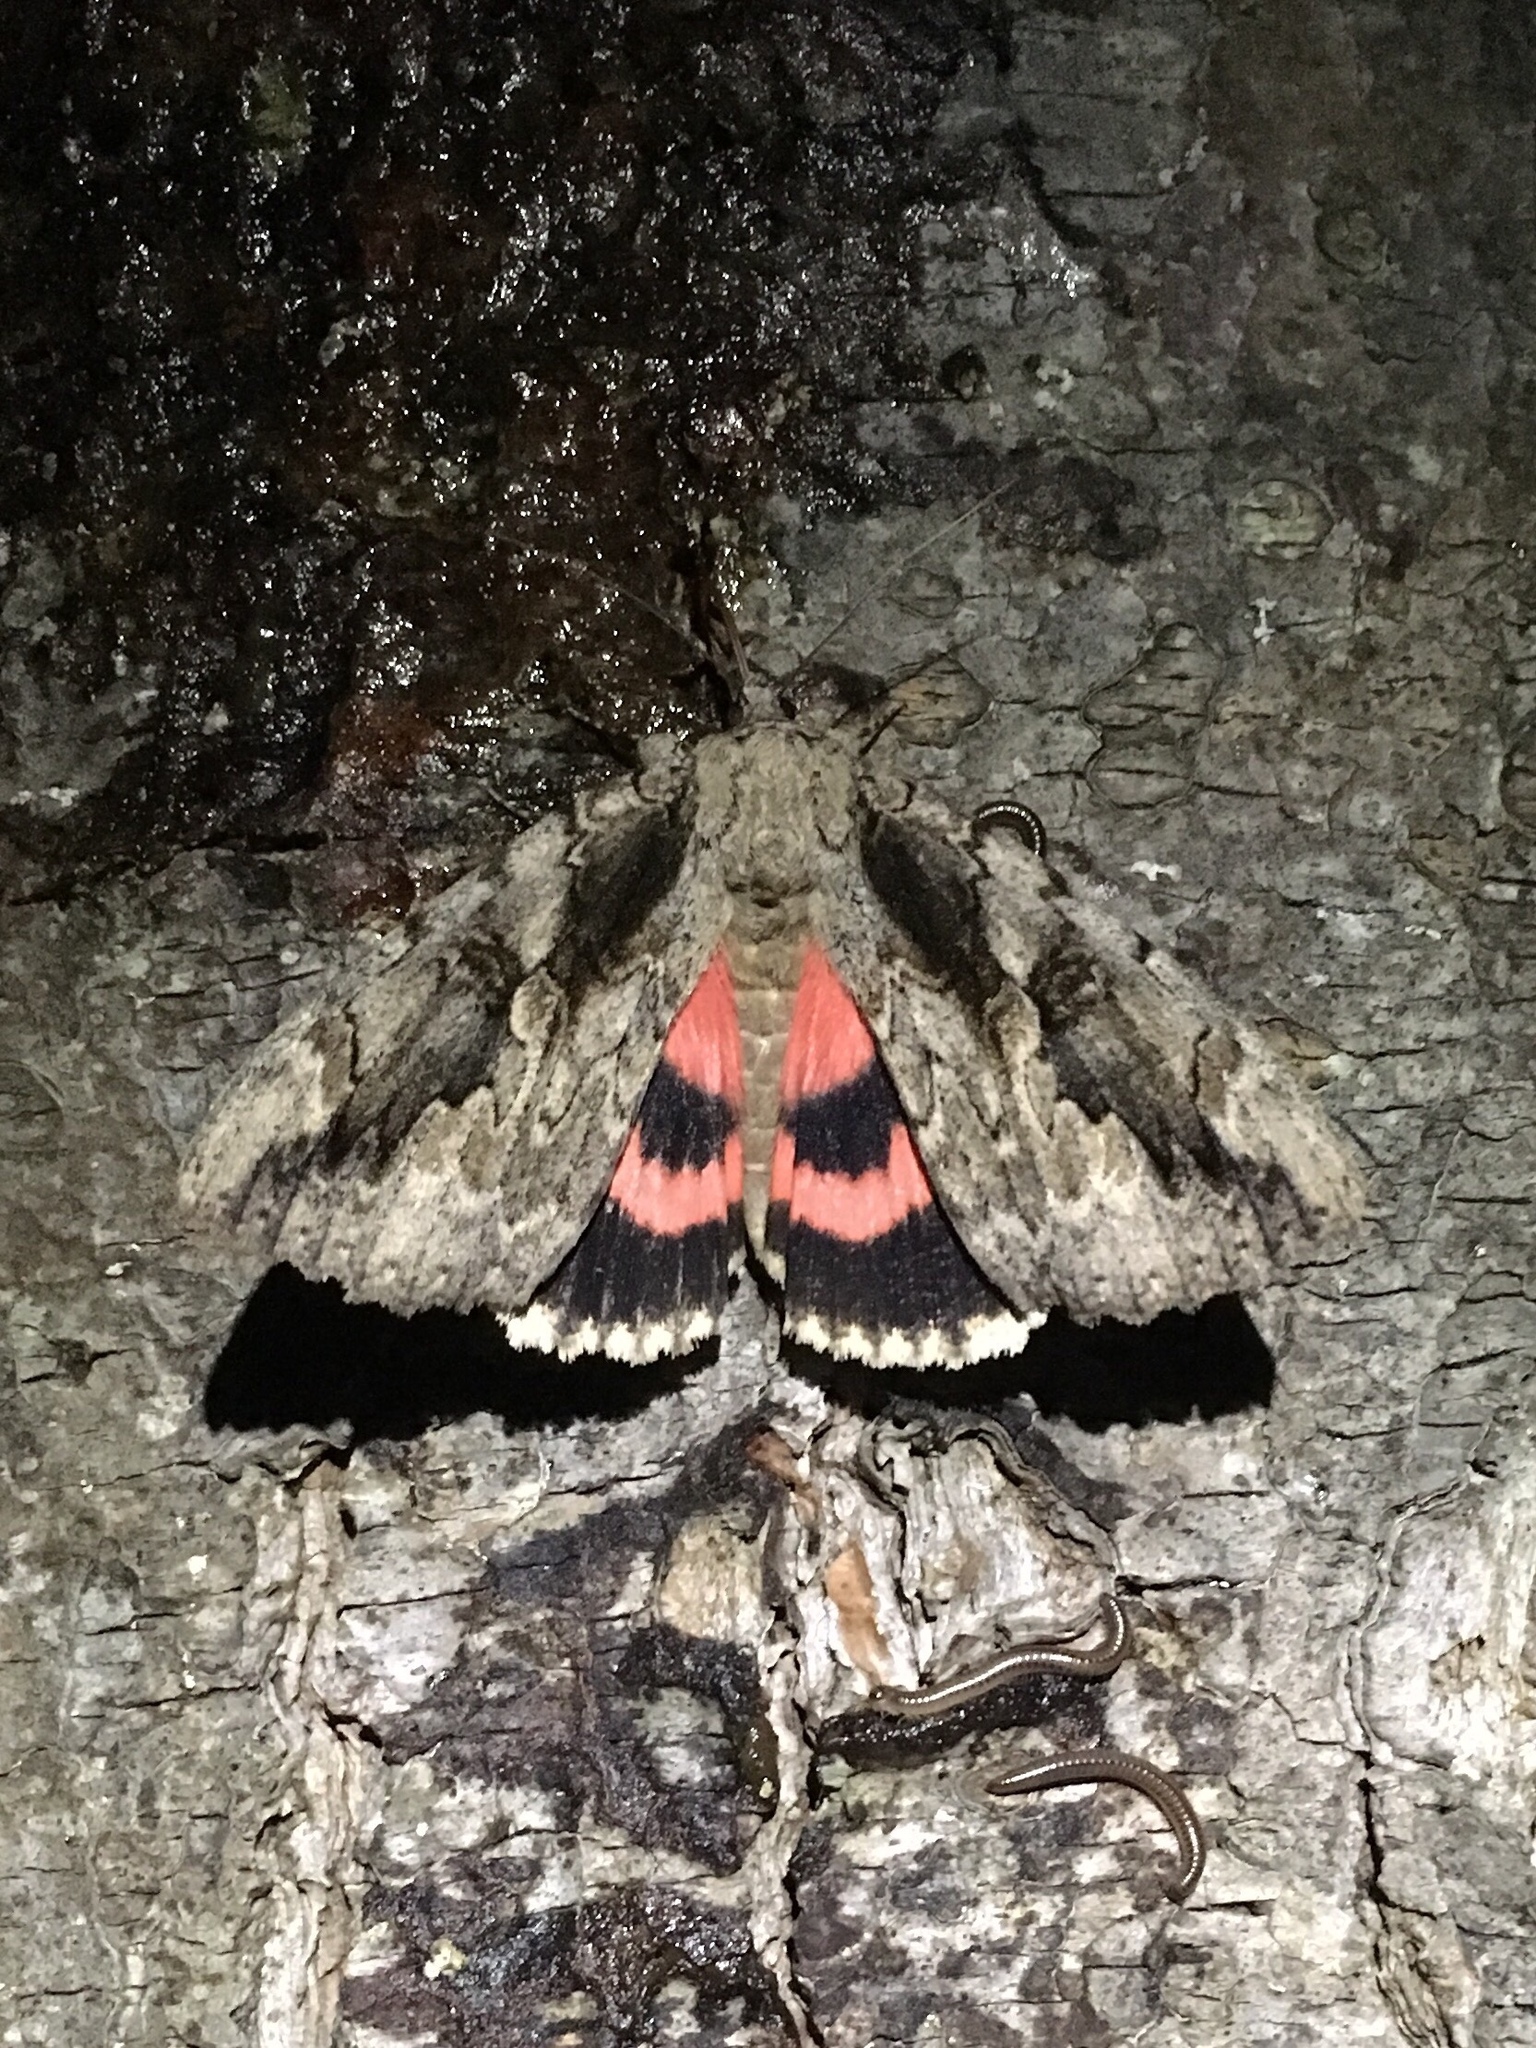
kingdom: Animalia
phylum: Arthropoda
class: Insecta
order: Lepidoptera
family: Erebidae
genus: Catocala
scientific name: Catocala amatrix
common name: Sweetheart underwing
